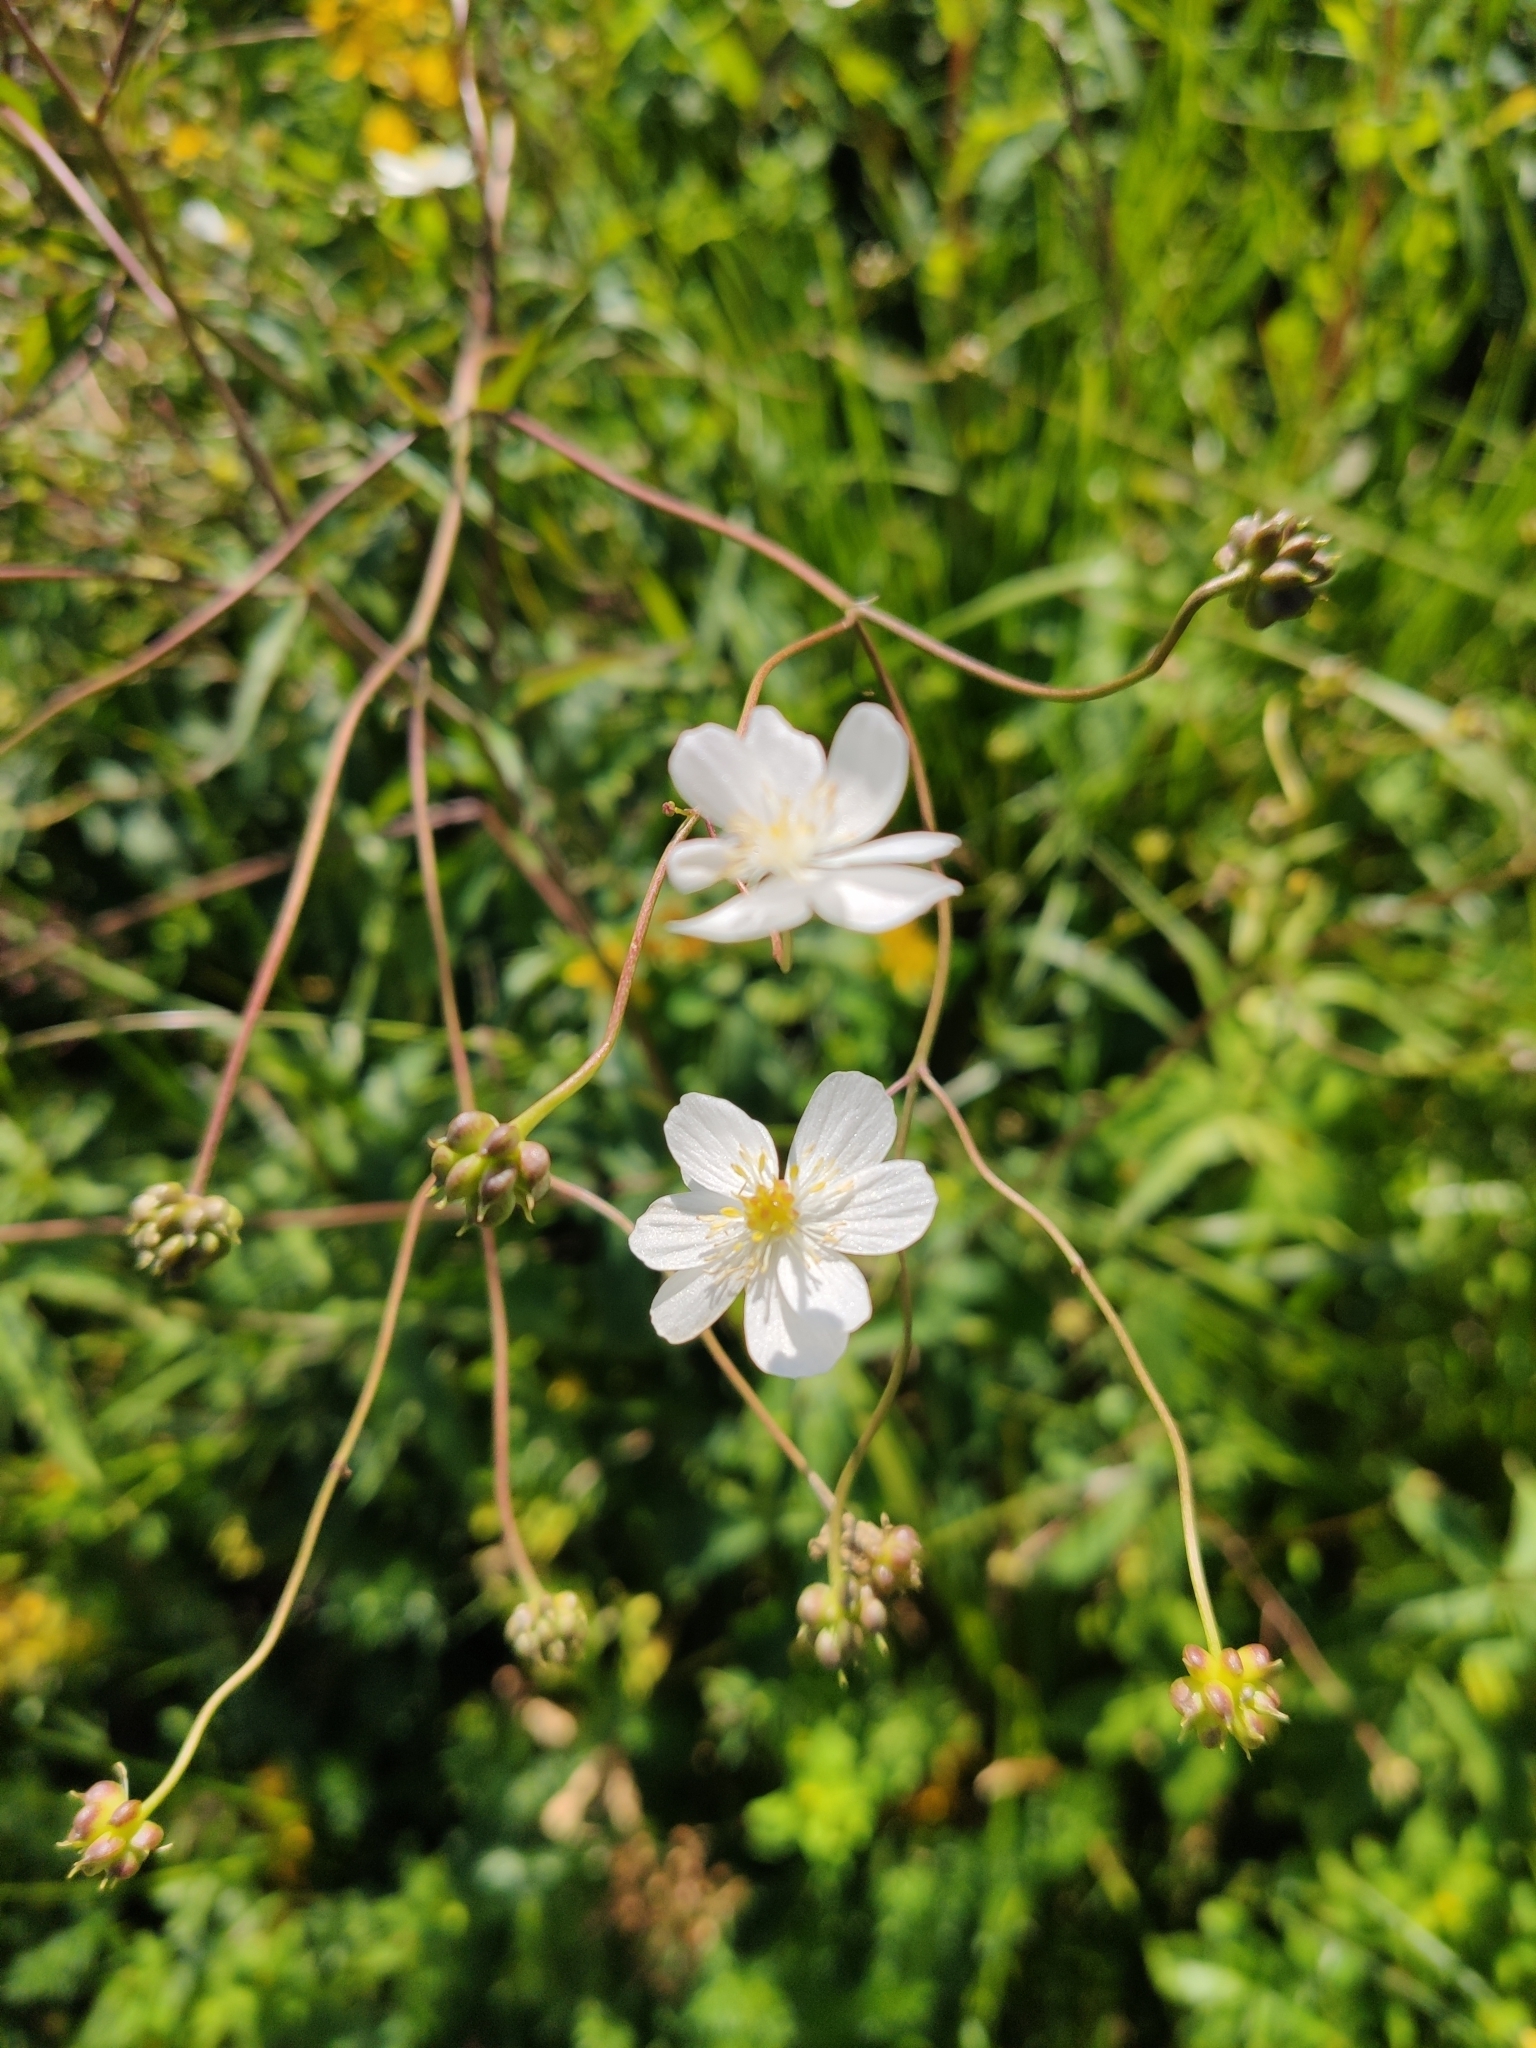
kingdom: Plantae
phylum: Tracheophyta
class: Magnoliopsida
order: Ranunculales
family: Ranunculaceae
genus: Ranunculus
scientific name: Ranunculus platanifolius
